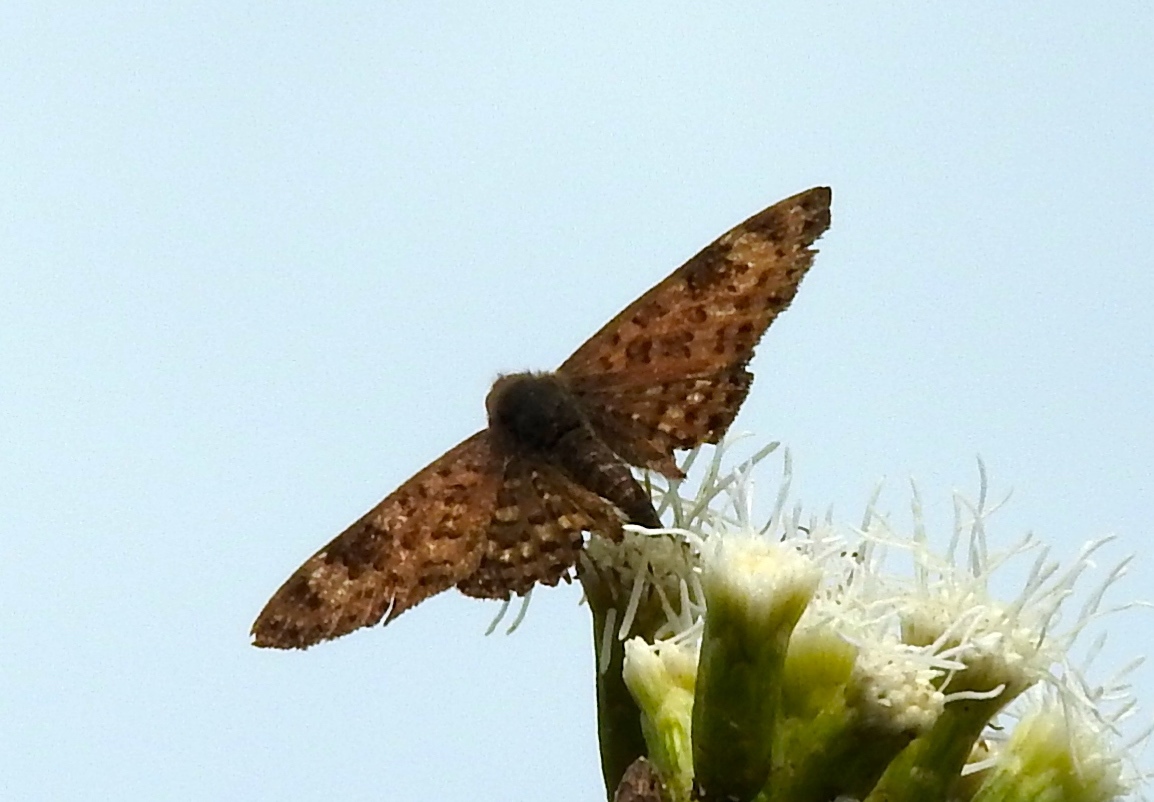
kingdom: Animalia
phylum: Arthropoda
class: Insecta
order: Lepidoptera
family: Riodinidae
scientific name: Riodinidae
